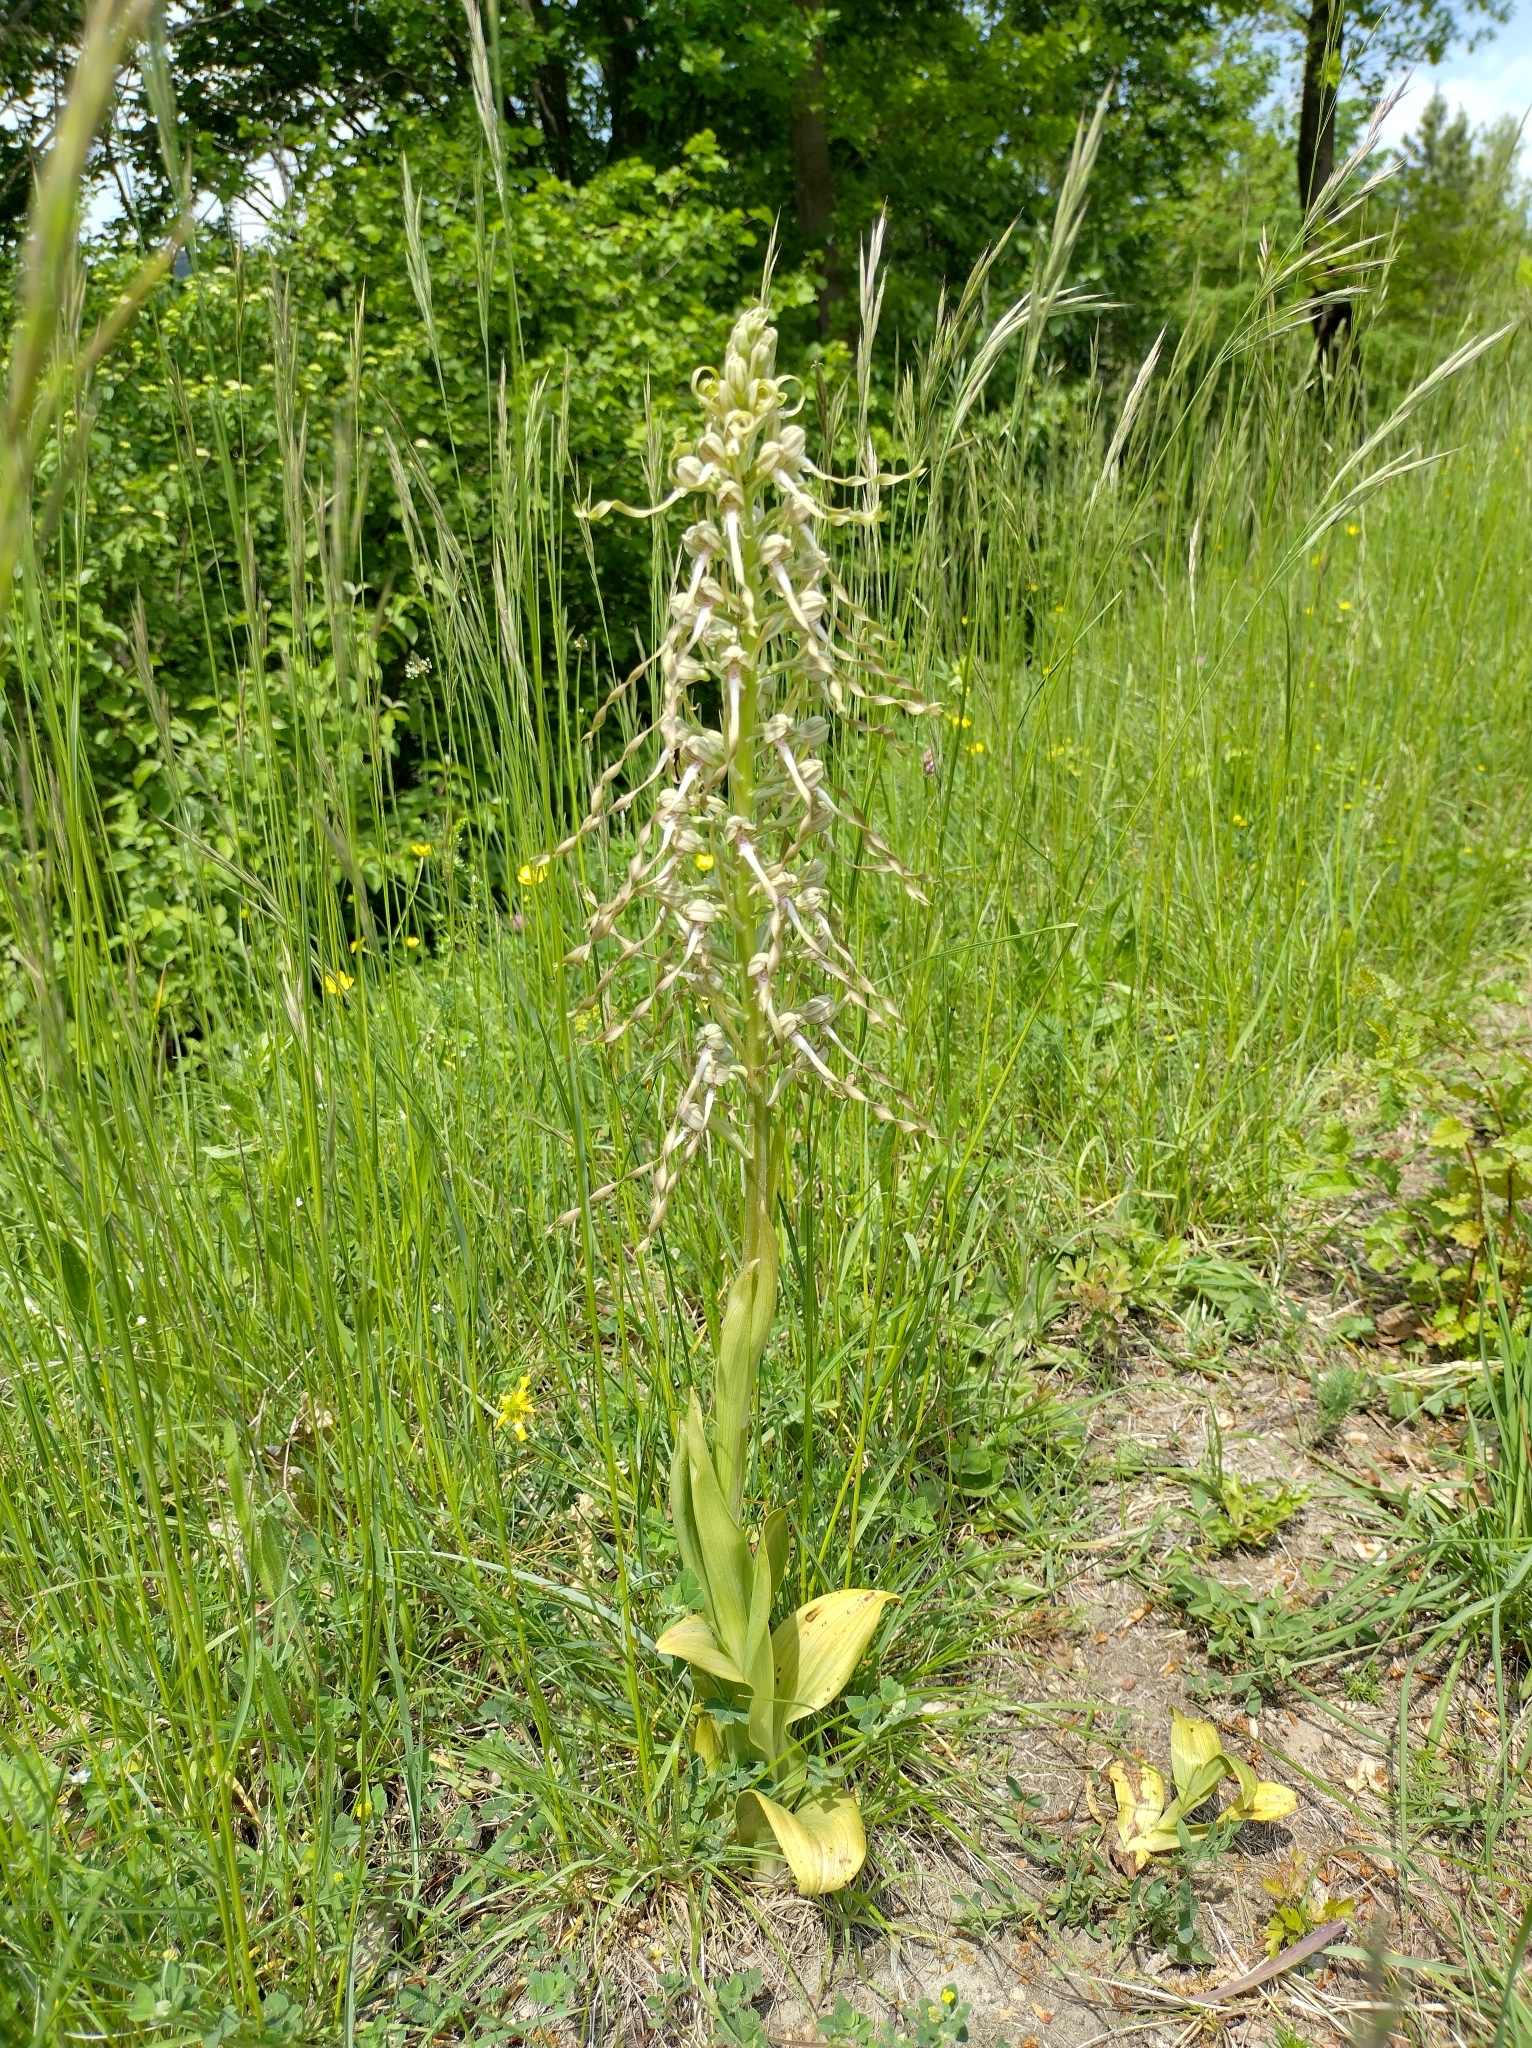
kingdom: Plantae
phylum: Tracheophyta
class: Liliopsida
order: Asparagales
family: Orchidaceae
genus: Himantoglossum
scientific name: Himantoglossum hircinum
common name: Lizard orchid
